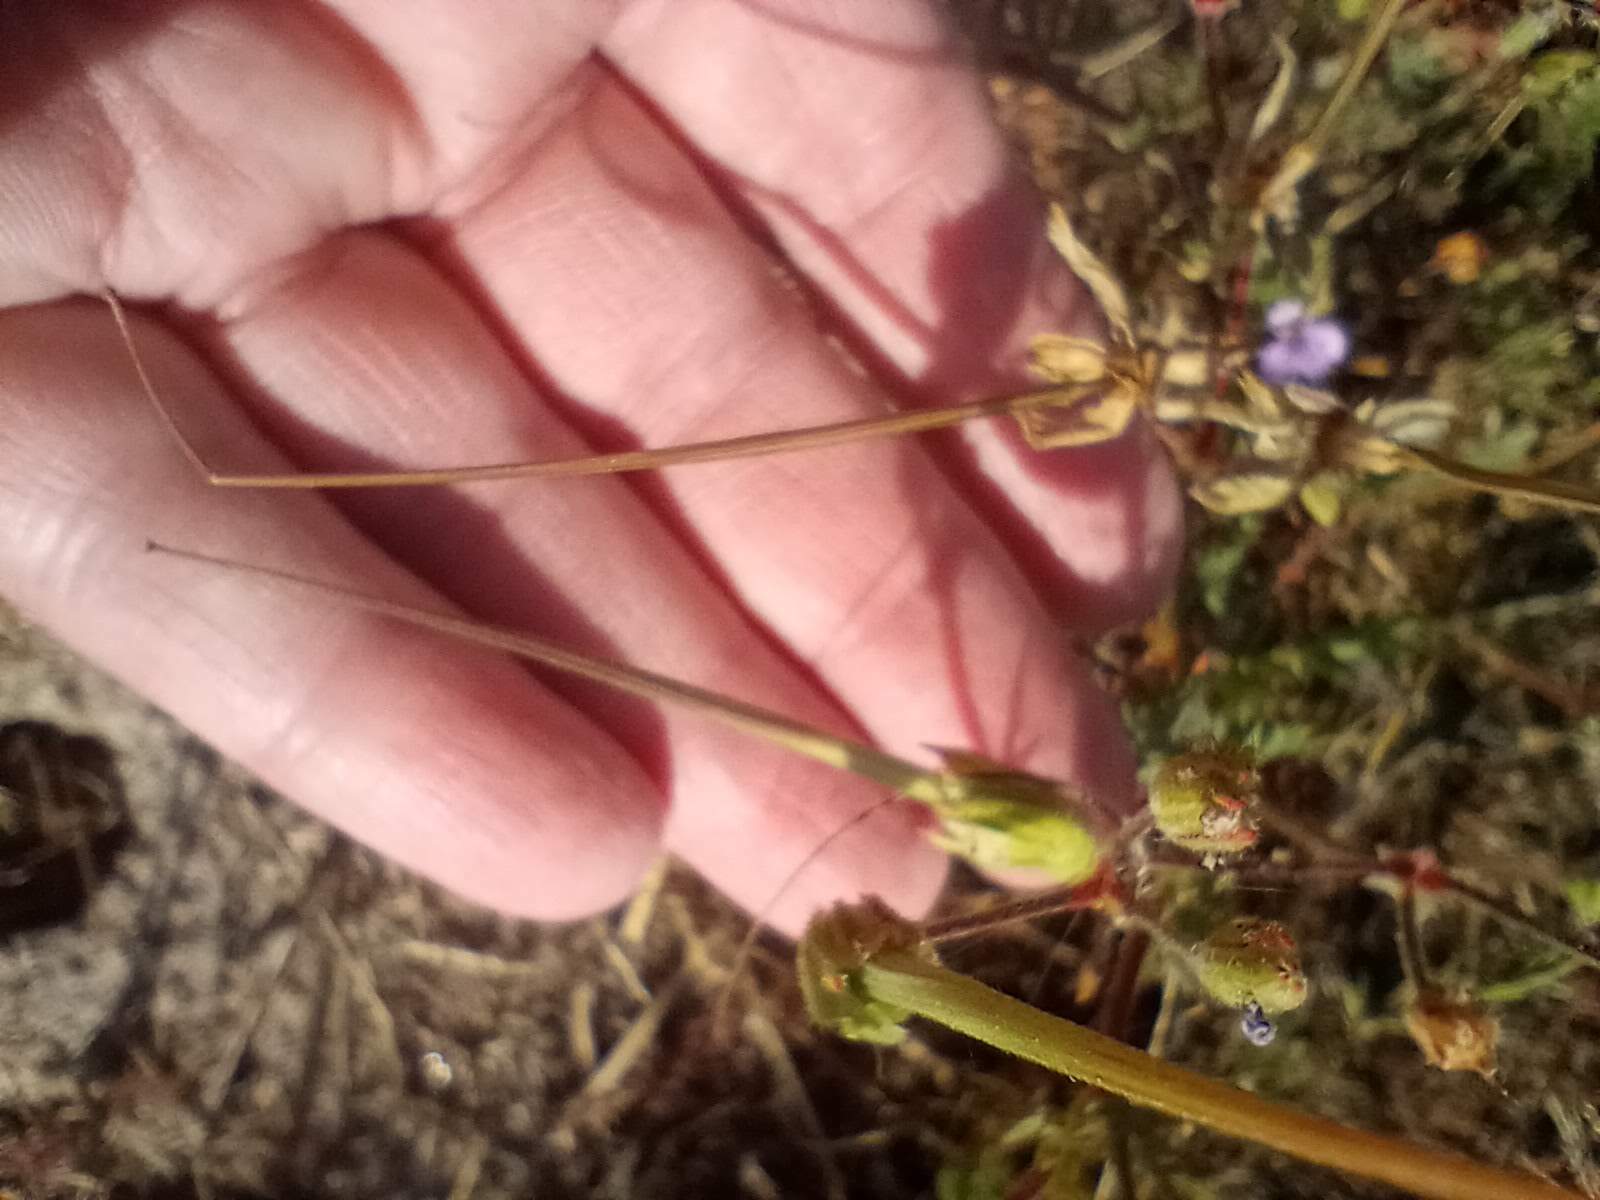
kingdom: Plantae
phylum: Tracheophyta
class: Magnoliopsida
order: Geraniales
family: Geraniaceae
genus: Erodium
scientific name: Erodium botrys
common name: Mediterranean stork's-bill
